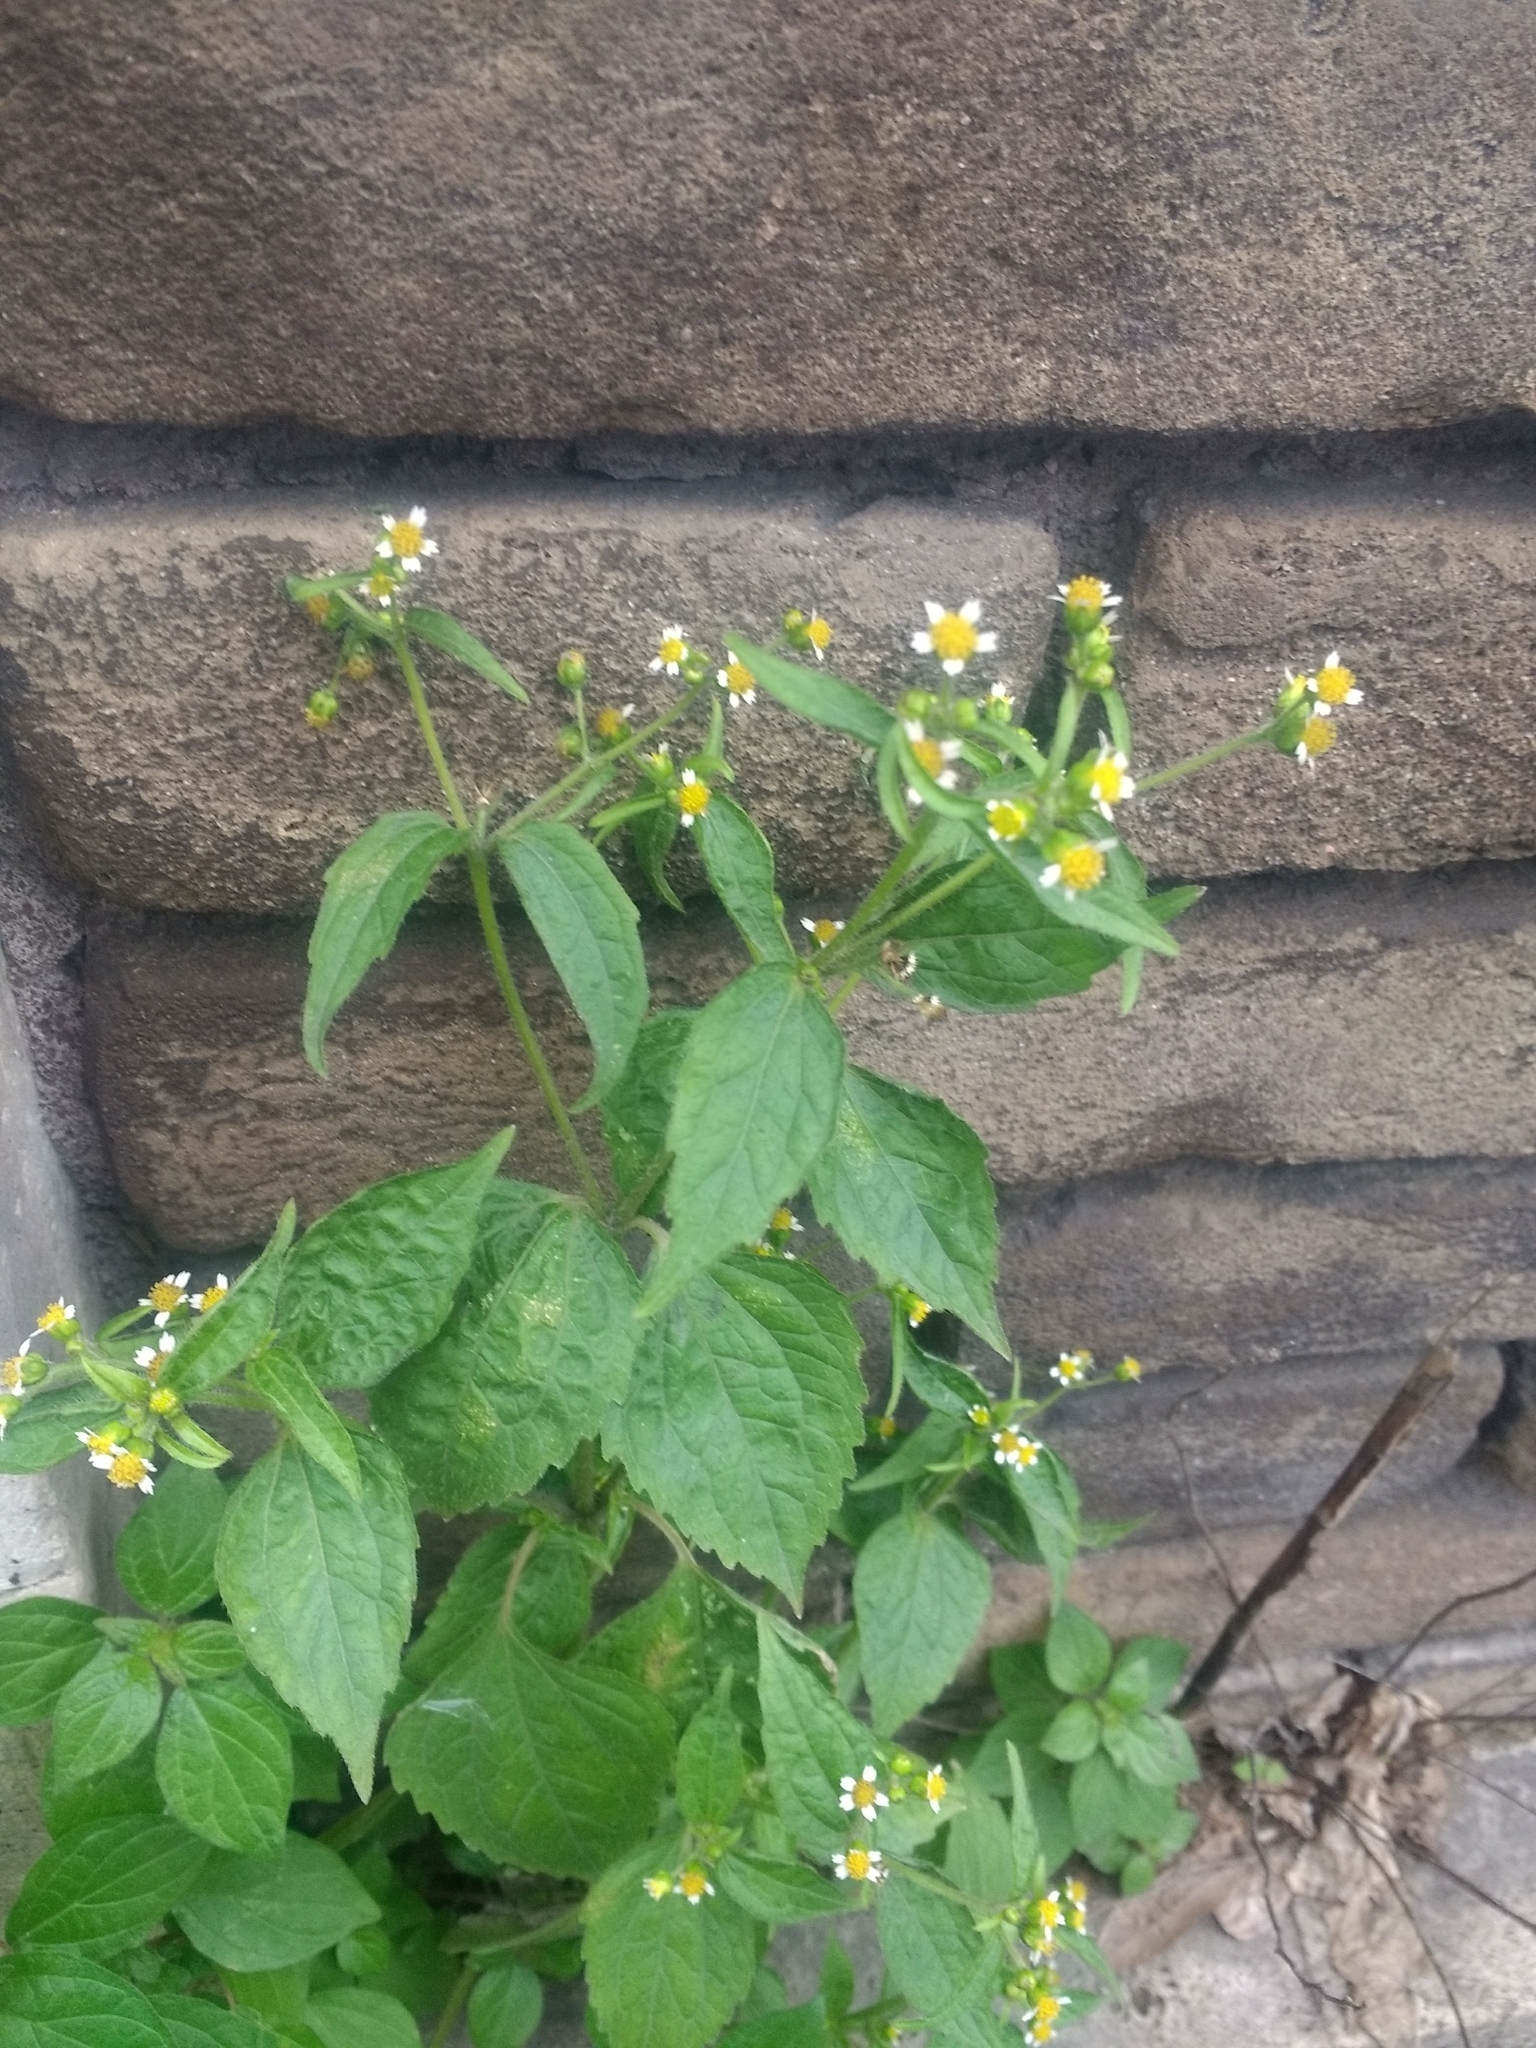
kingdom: Plantae
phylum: Tracheophyta
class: Magnoliopsida
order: Asterales
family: Asteraceae
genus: Galinsoga
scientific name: Galinsoga quadriradiata
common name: Shaggy soldier
